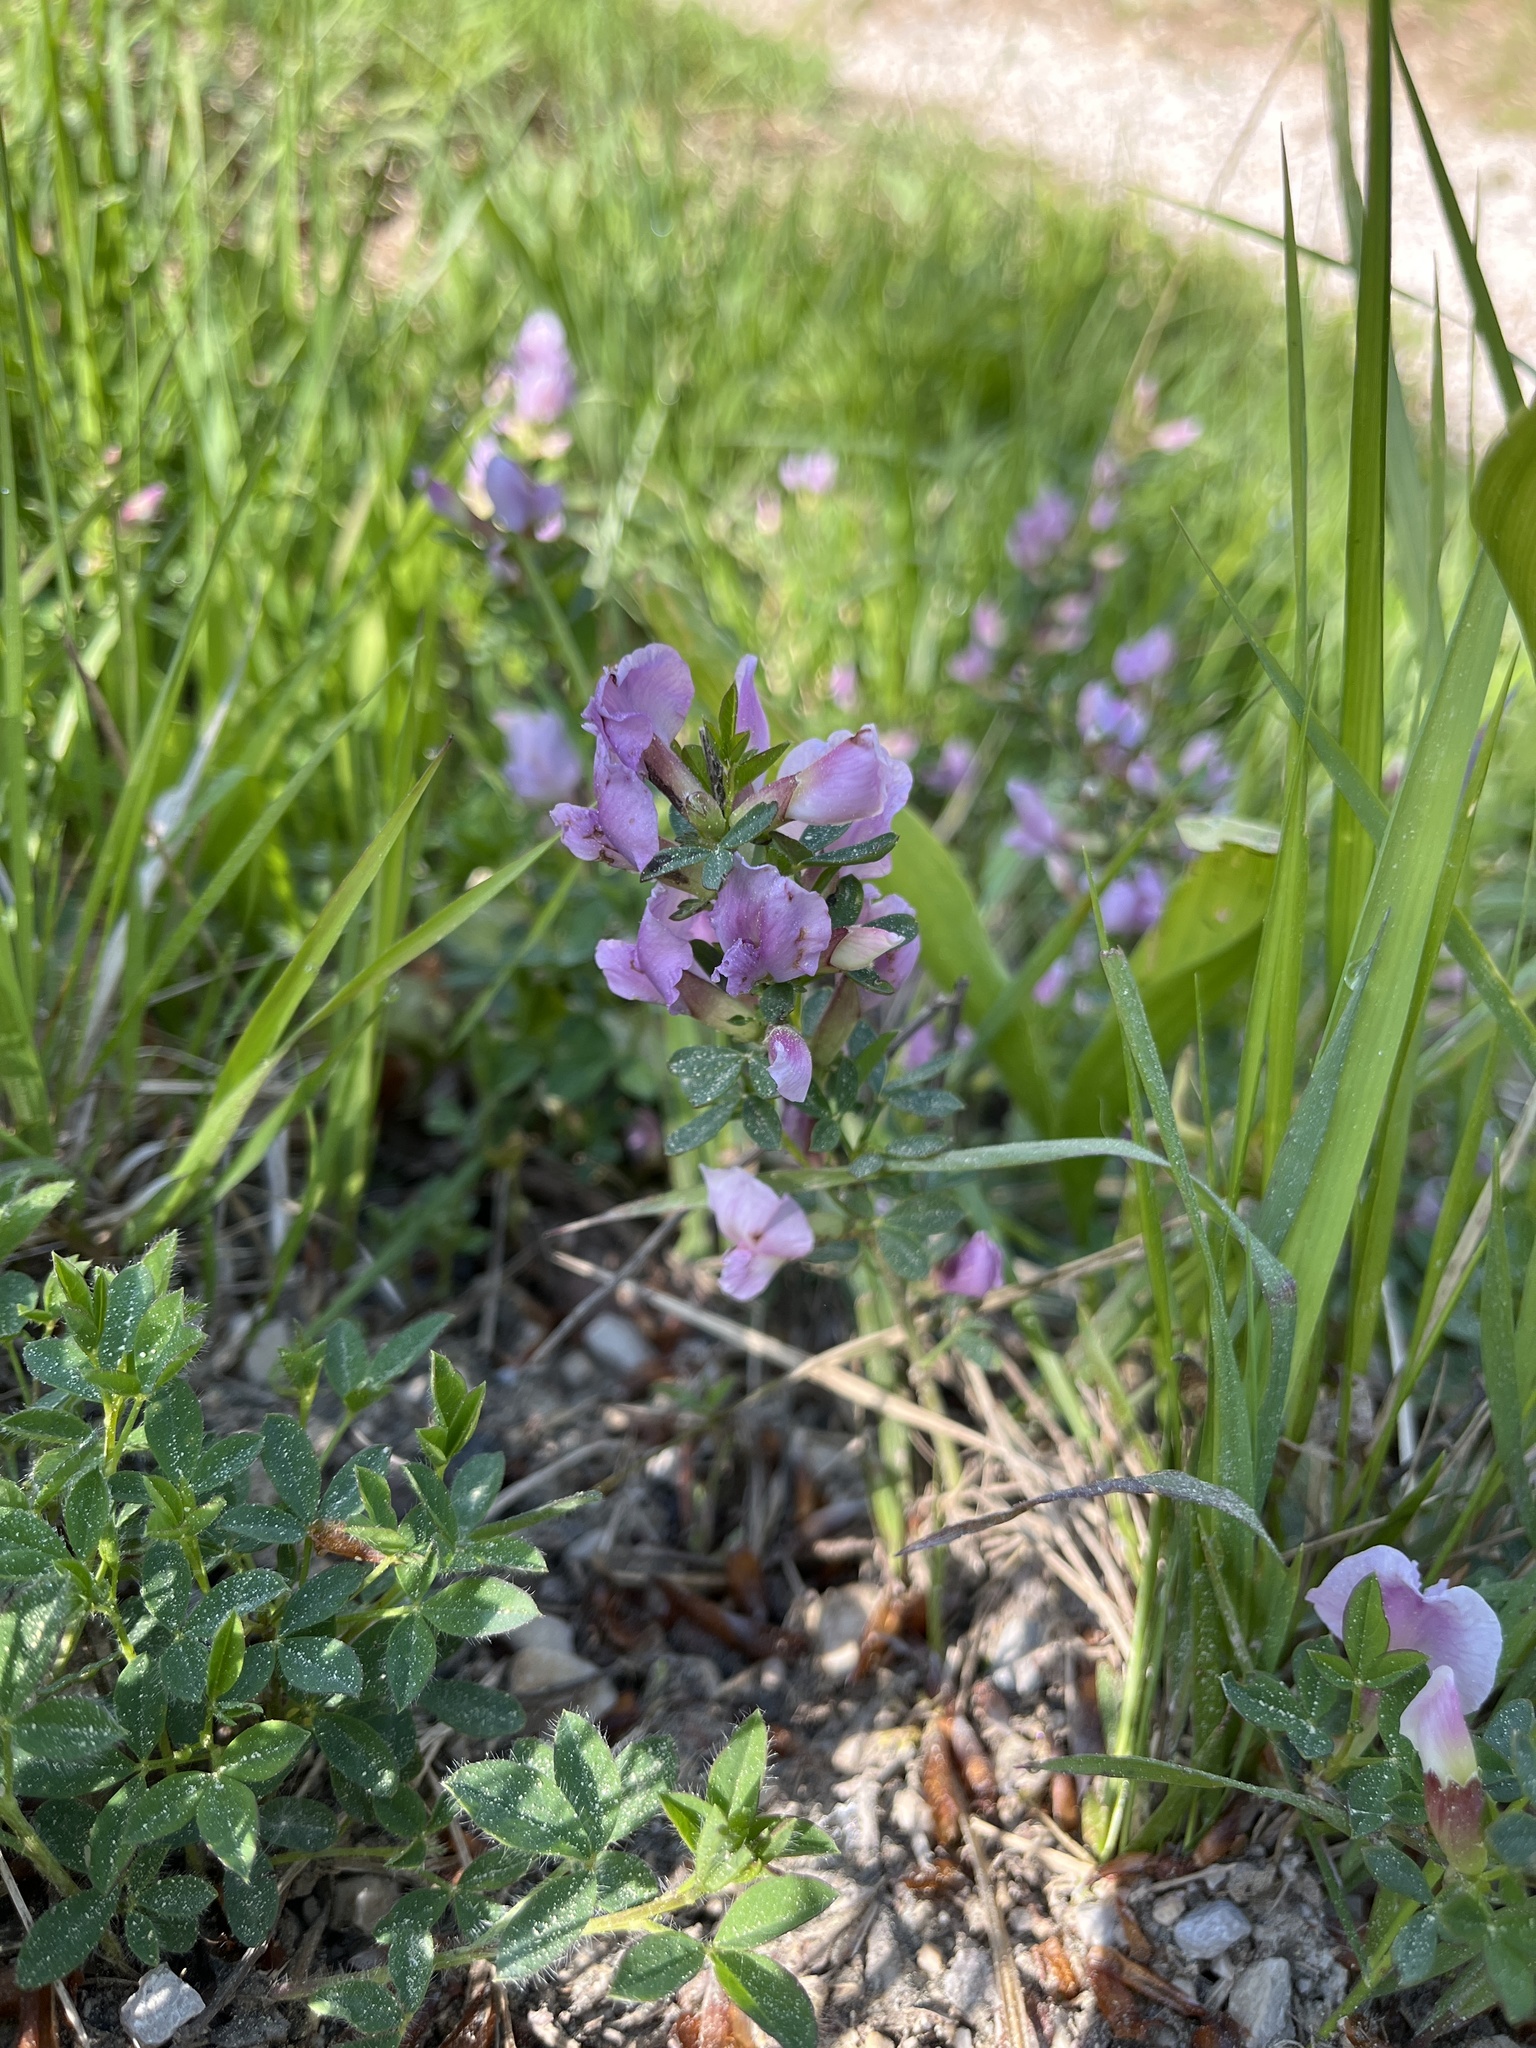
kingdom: Plantae
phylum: Tracheophyta
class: Magnoliopsida
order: Fabales
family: Fabaceae
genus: Chamaecytisus
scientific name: Chamaecytisus purpureus
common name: Purple broom
